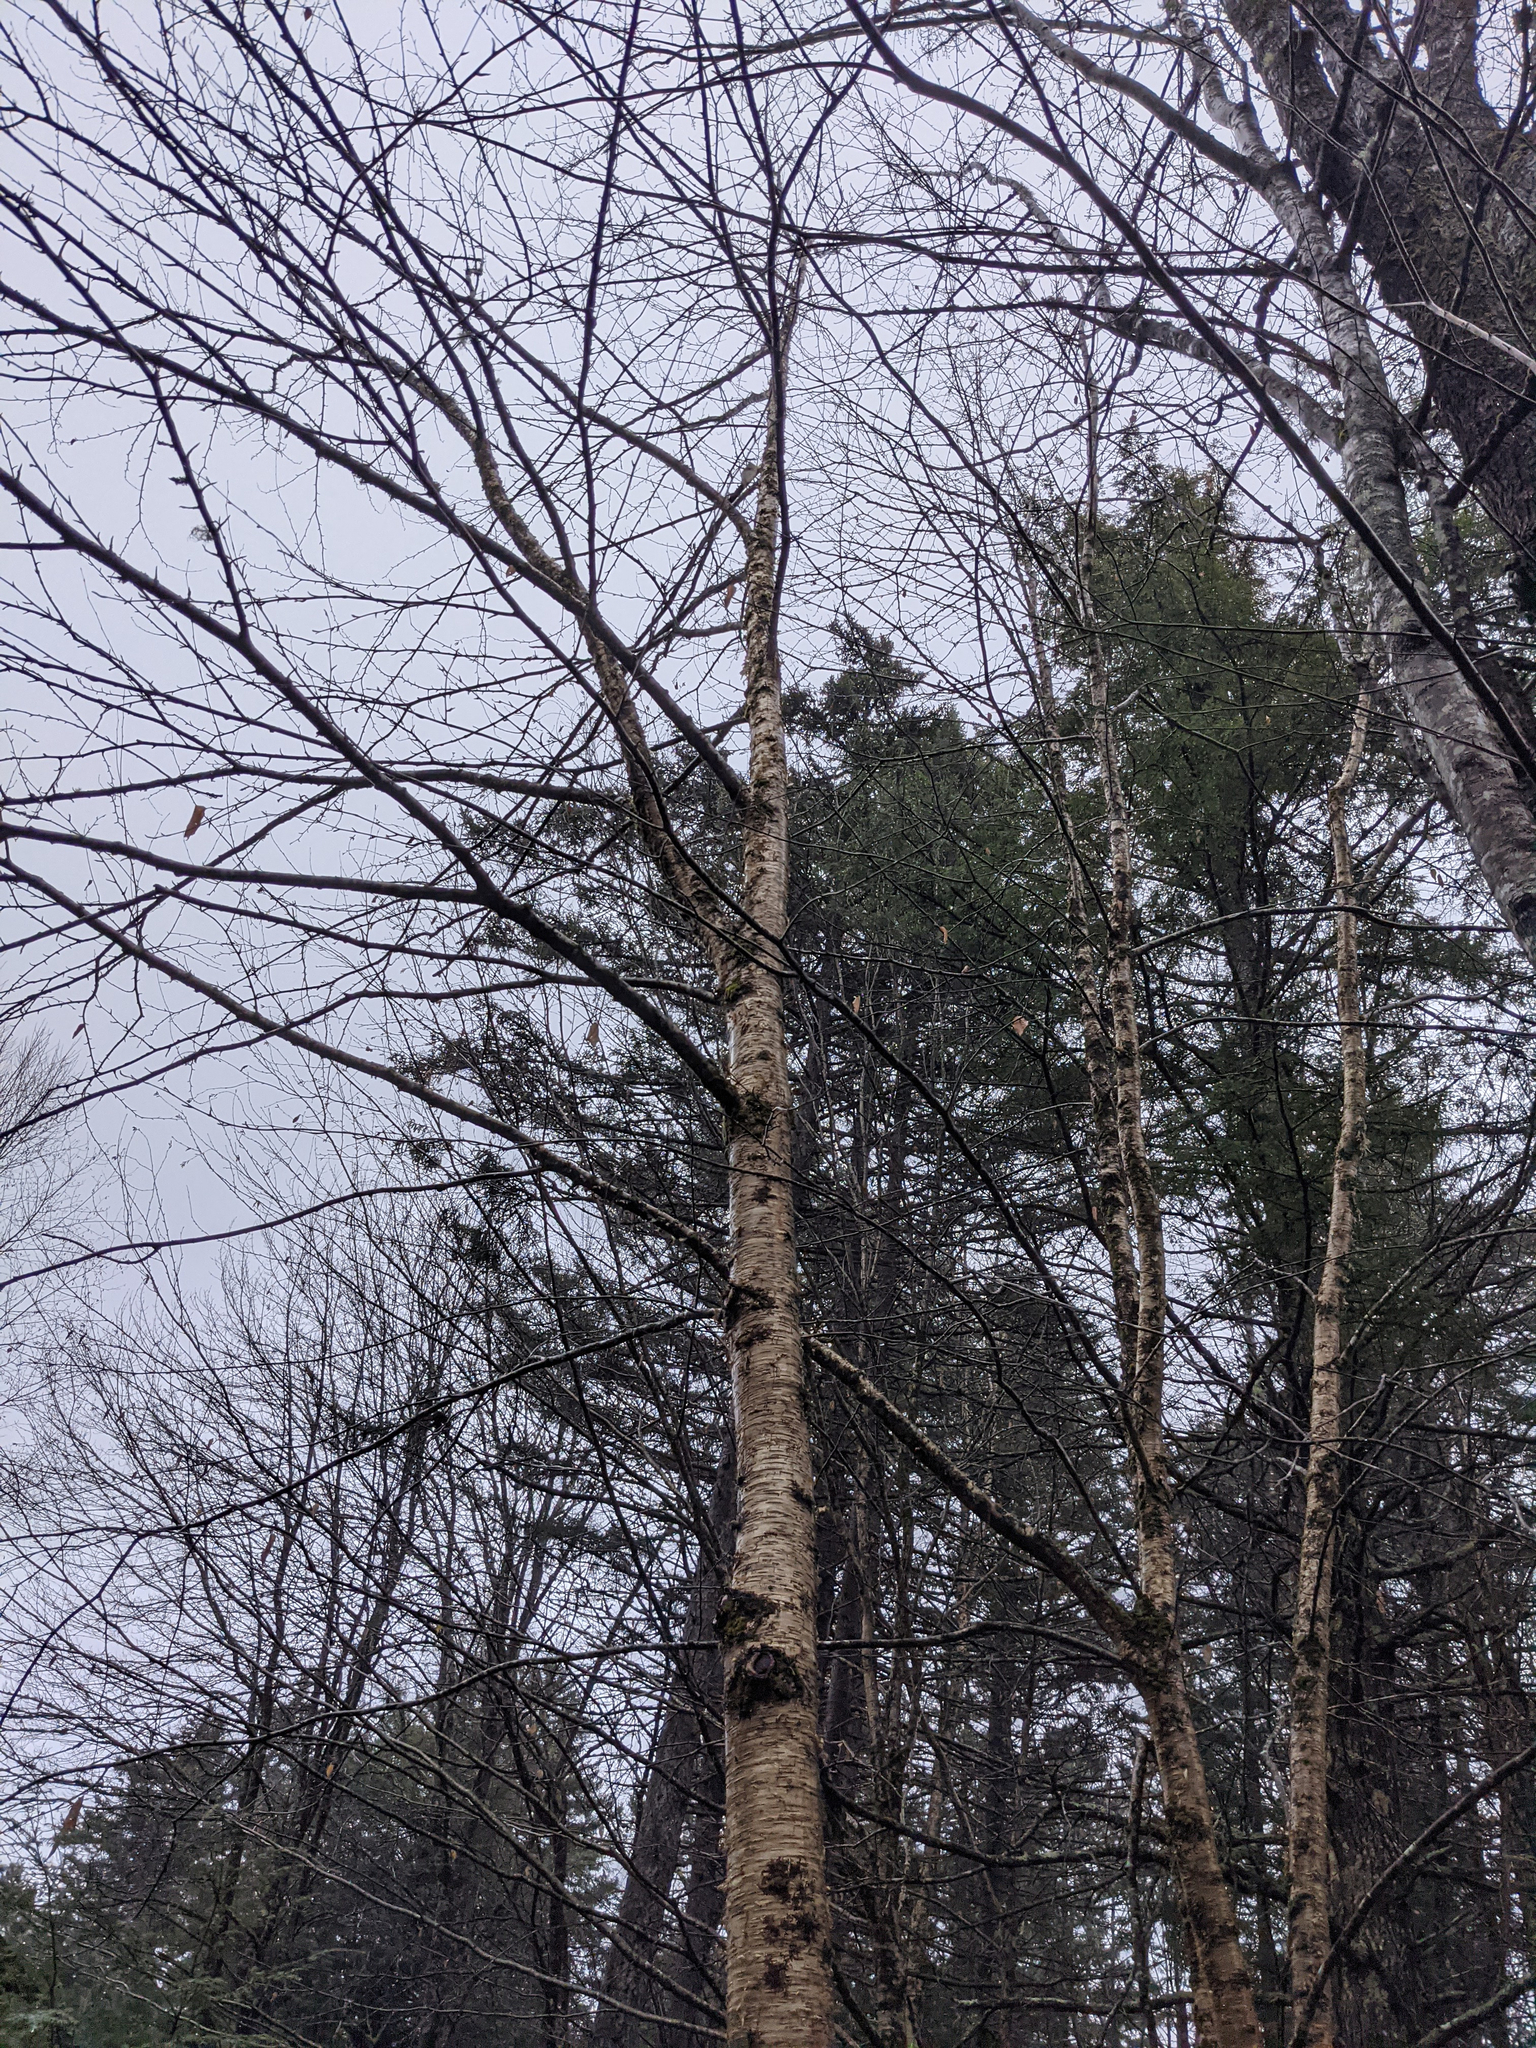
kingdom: Plantae
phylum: Tracheophyta
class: Magnoliopsida
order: Fagales
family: Betulaceae
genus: Betula
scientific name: Betula alleghaniensis
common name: Yellow birch
